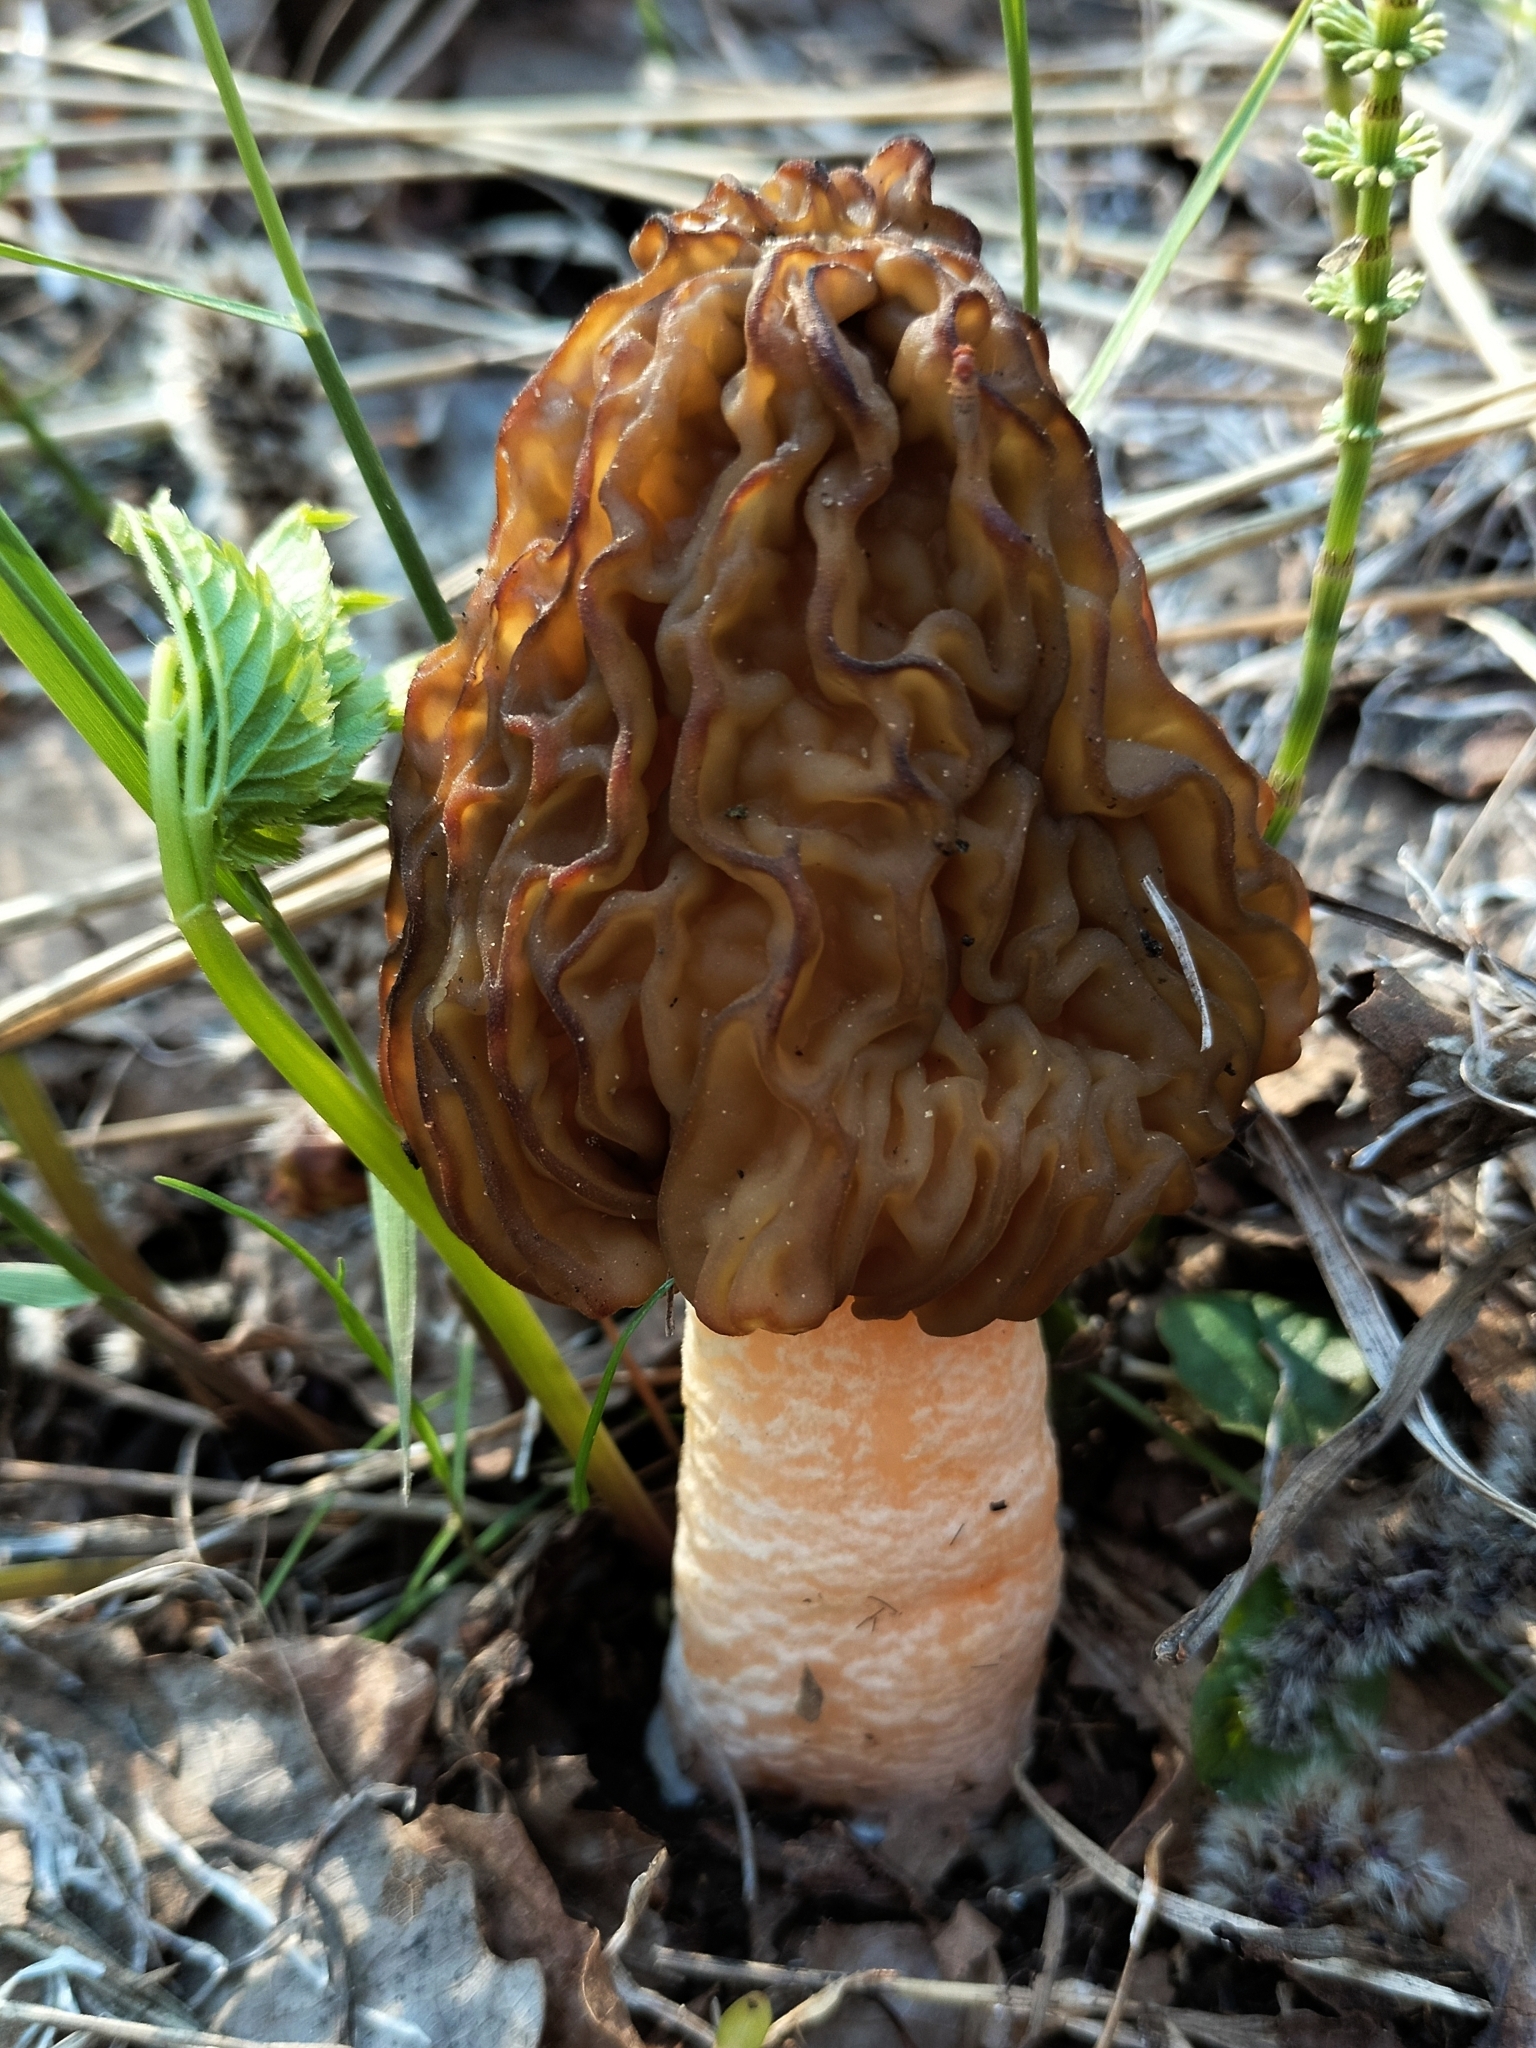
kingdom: Fungi
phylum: Ascomycota
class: Pezizomycetes
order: Pezizales
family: Morchellaceae
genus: Verpa
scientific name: Verpa bohemica
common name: Wrinkled thimble morel
